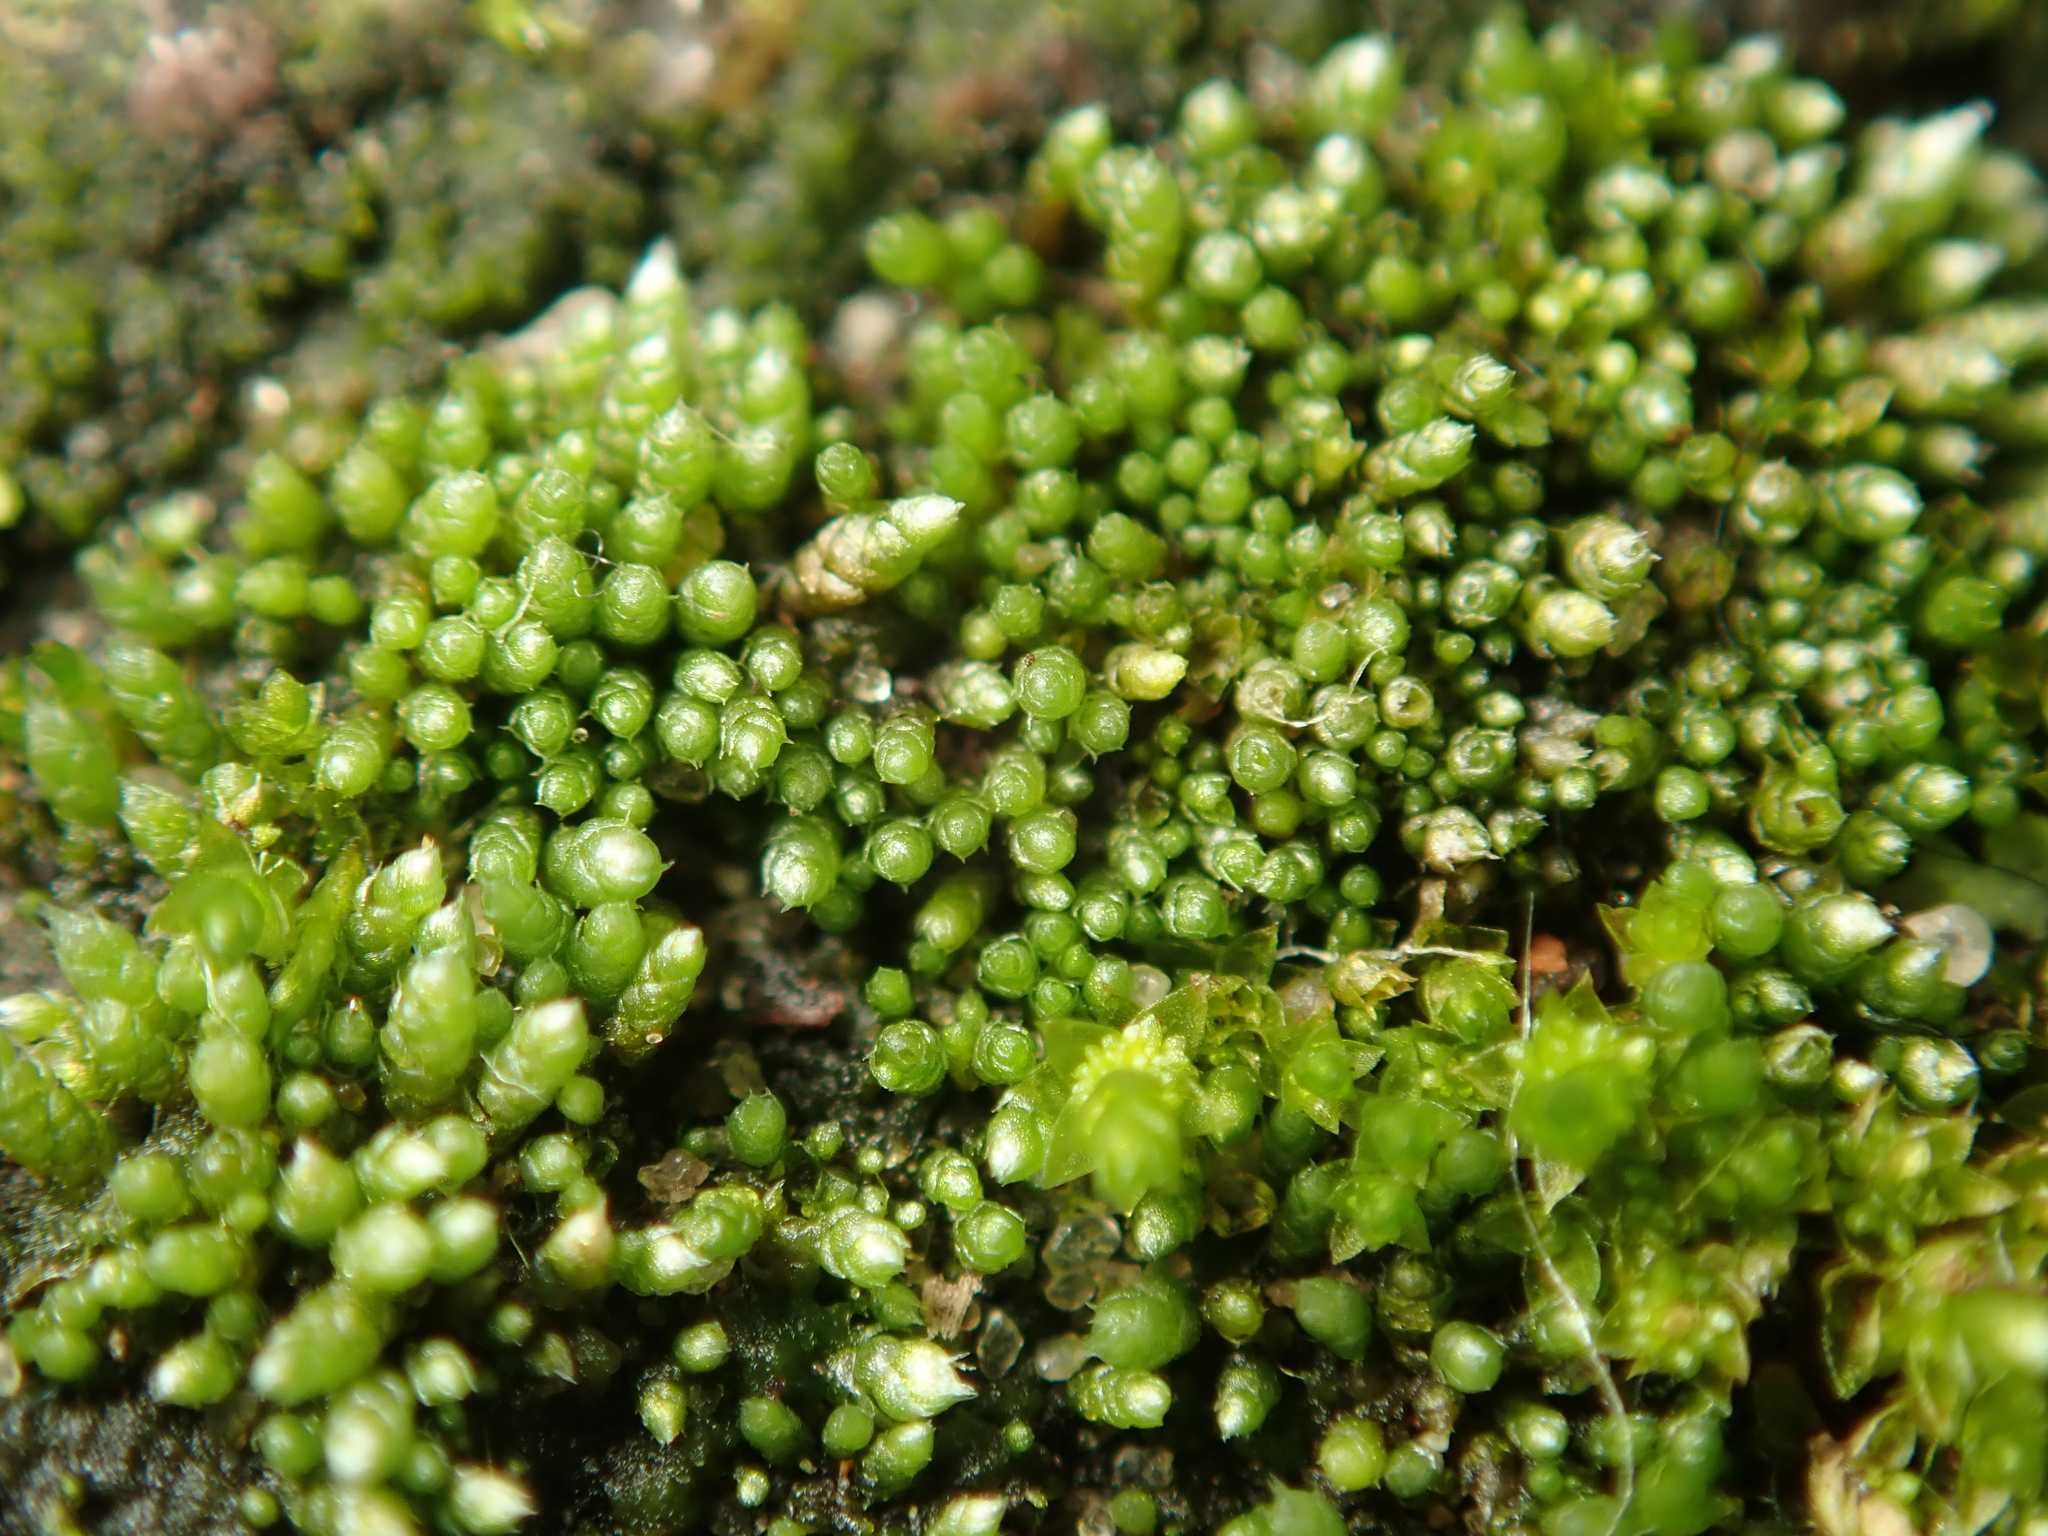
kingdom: Plantae
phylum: Bryophyta
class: Bryopsida
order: Bryales
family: Bryaceae
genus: Bryum
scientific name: Bryum argenteum
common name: Silver-moss
